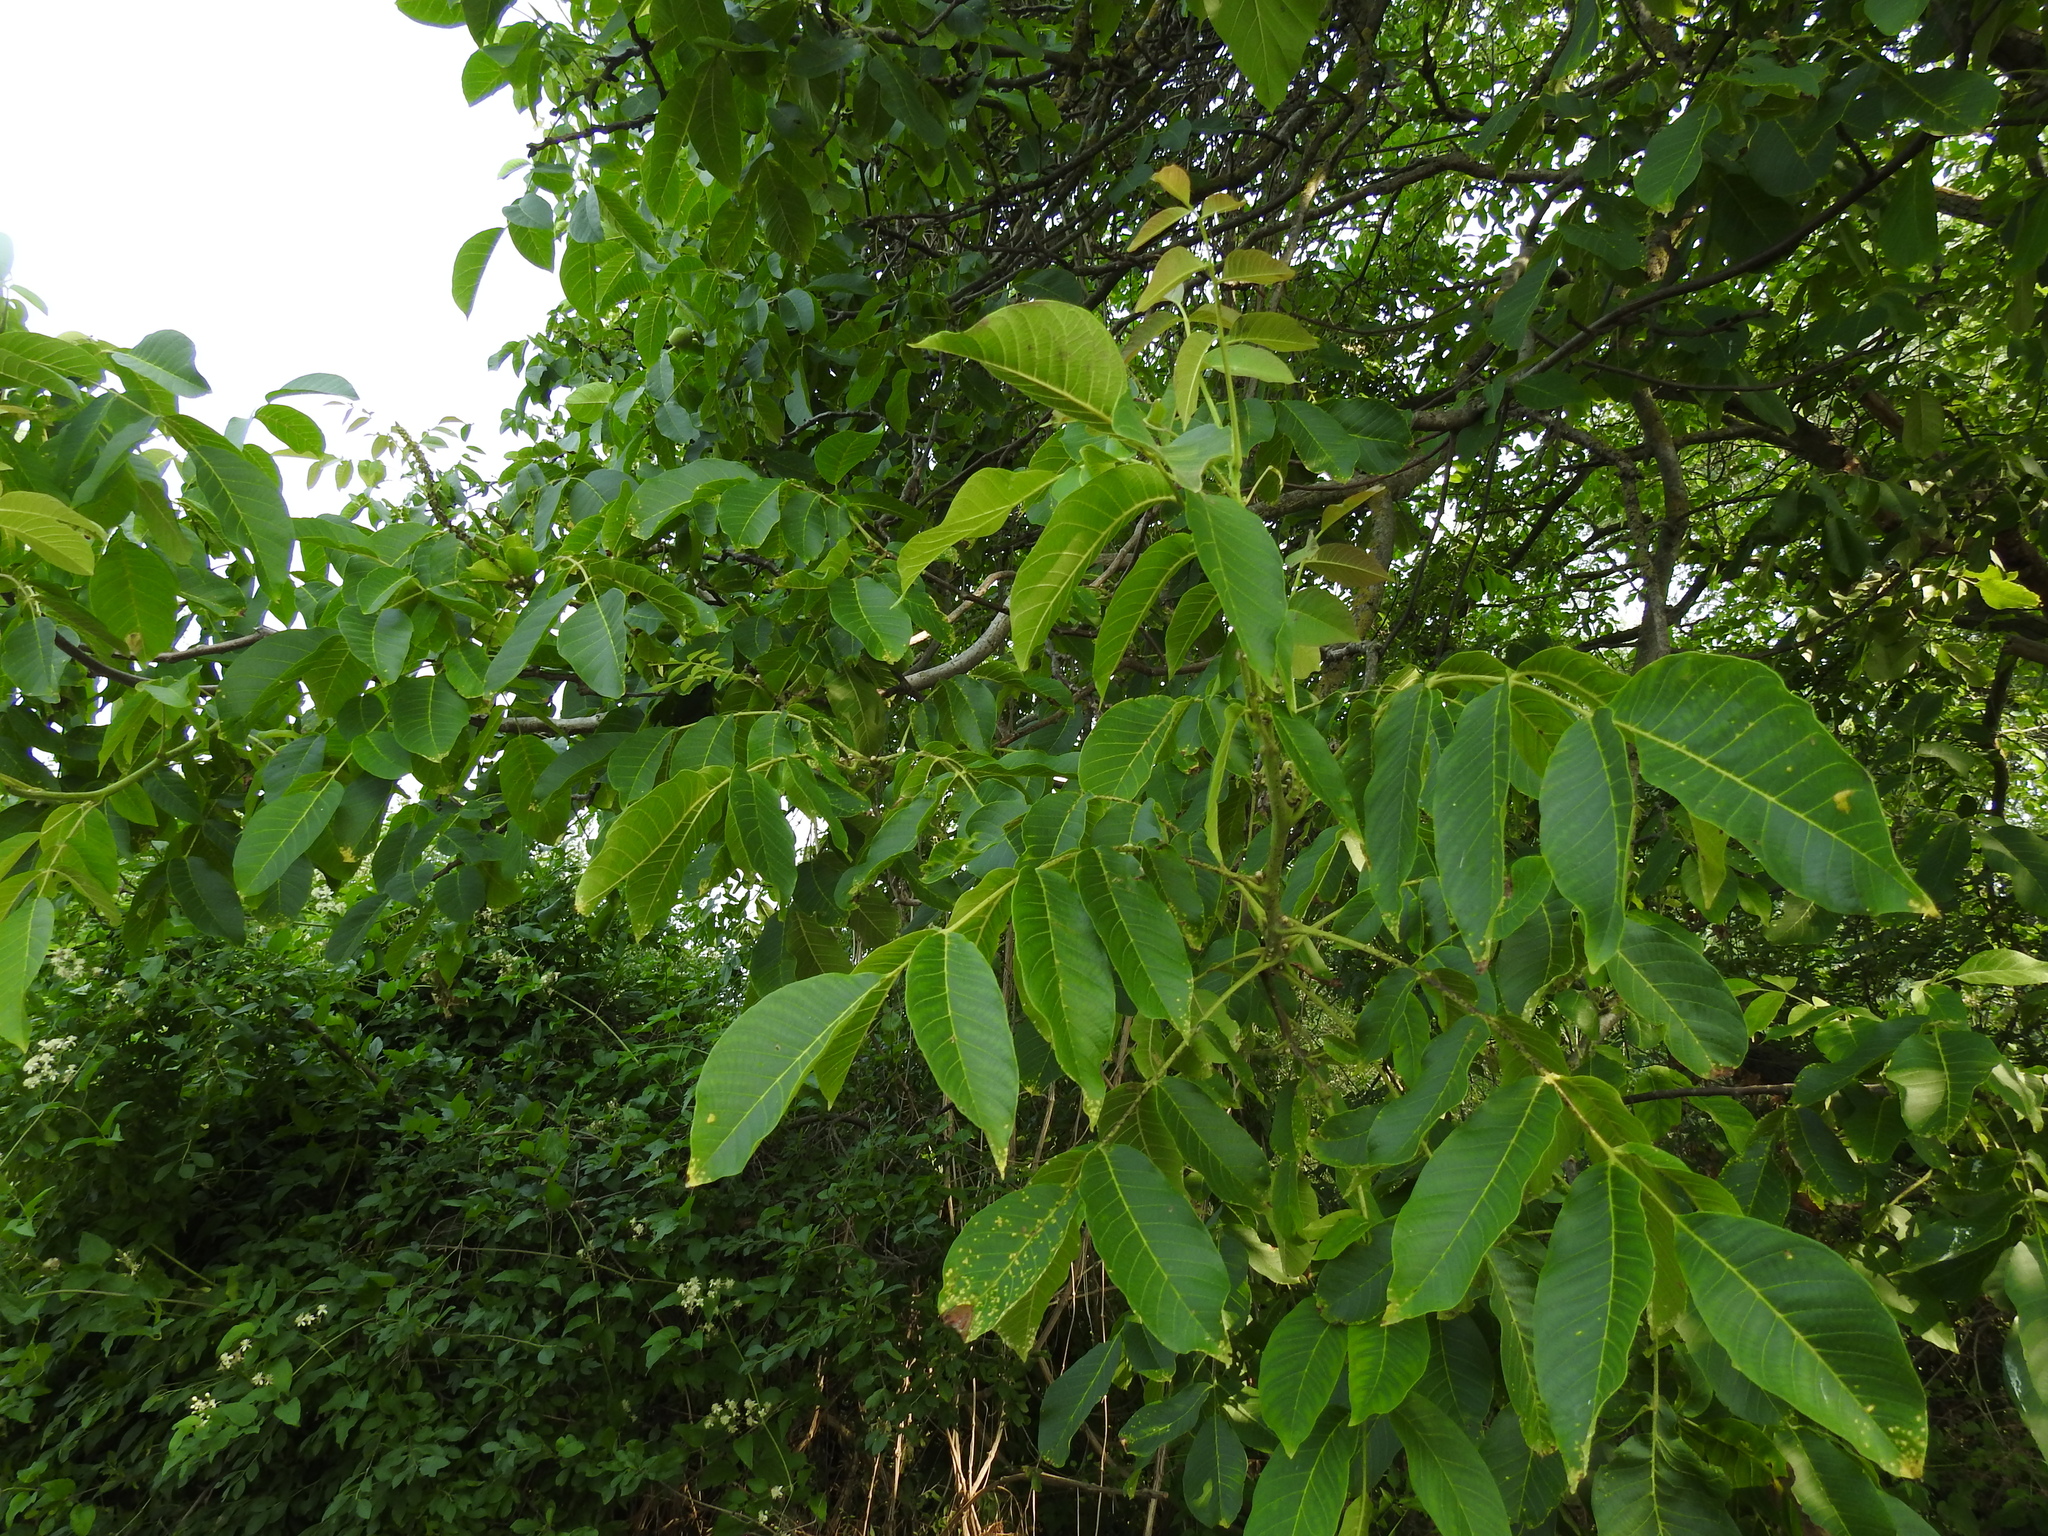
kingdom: Plantae
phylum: Tracheophyta
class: Magnoliopsida
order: Fagales
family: Juglandaceae
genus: Juglans
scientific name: Juglans regia
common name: Walnut
